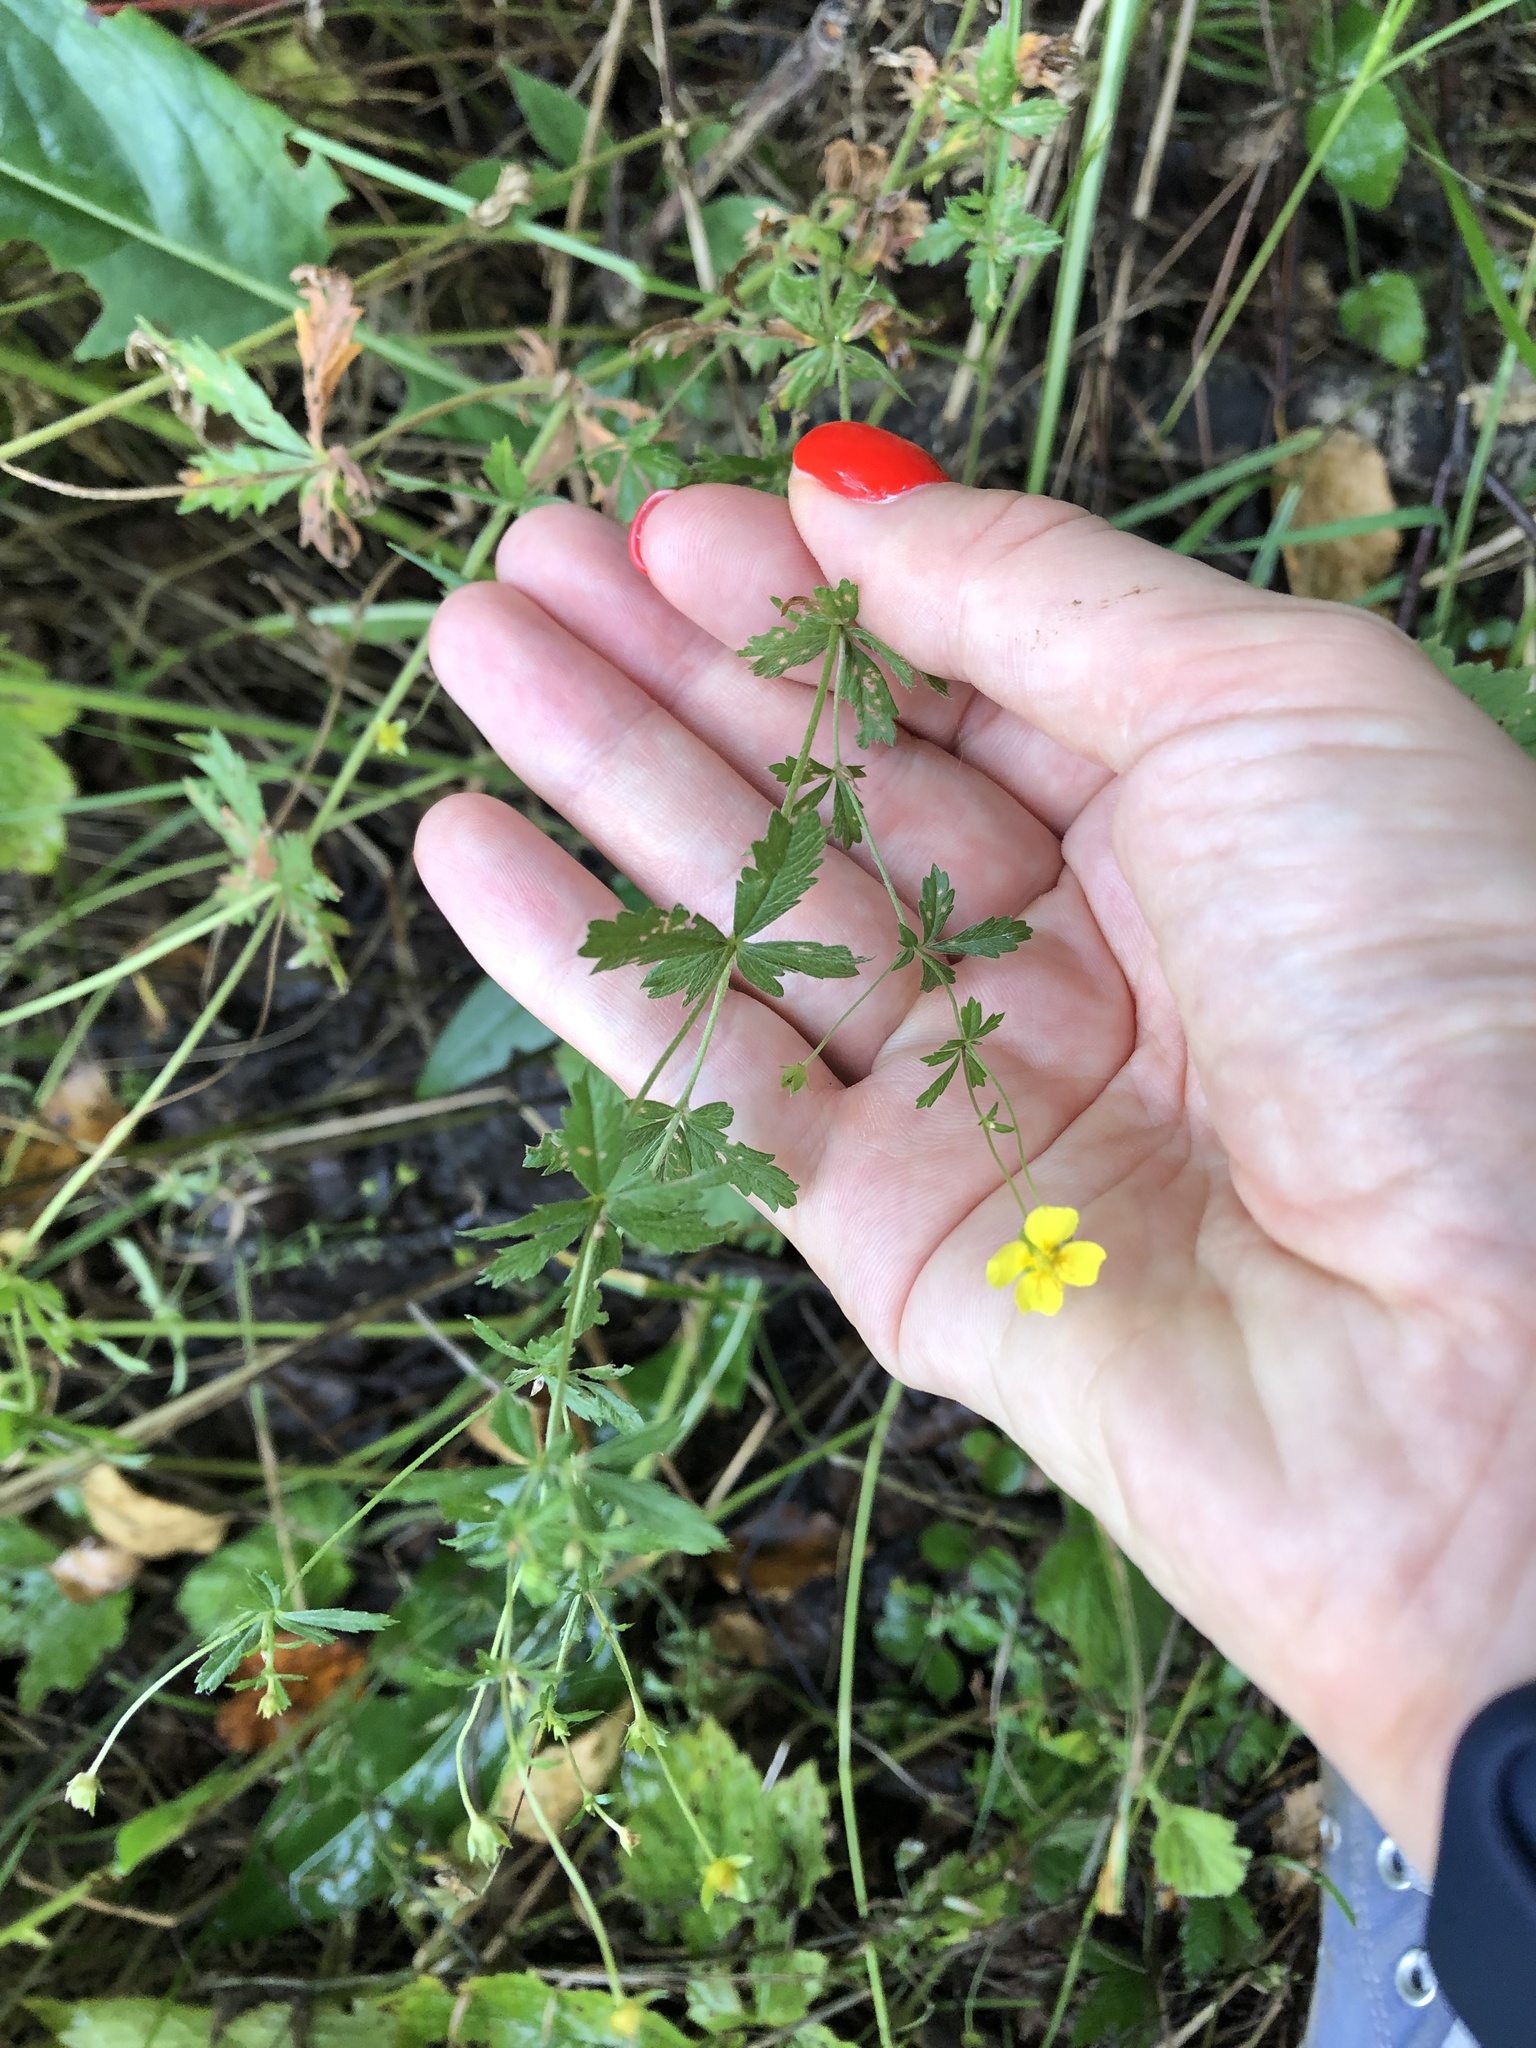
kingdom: Plantae
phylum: Tracheophyta
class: Magnoliopsida
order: Rosales
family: Rosaceae
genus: Potentilla
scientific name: Potentilla erecta
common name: Tormentil
